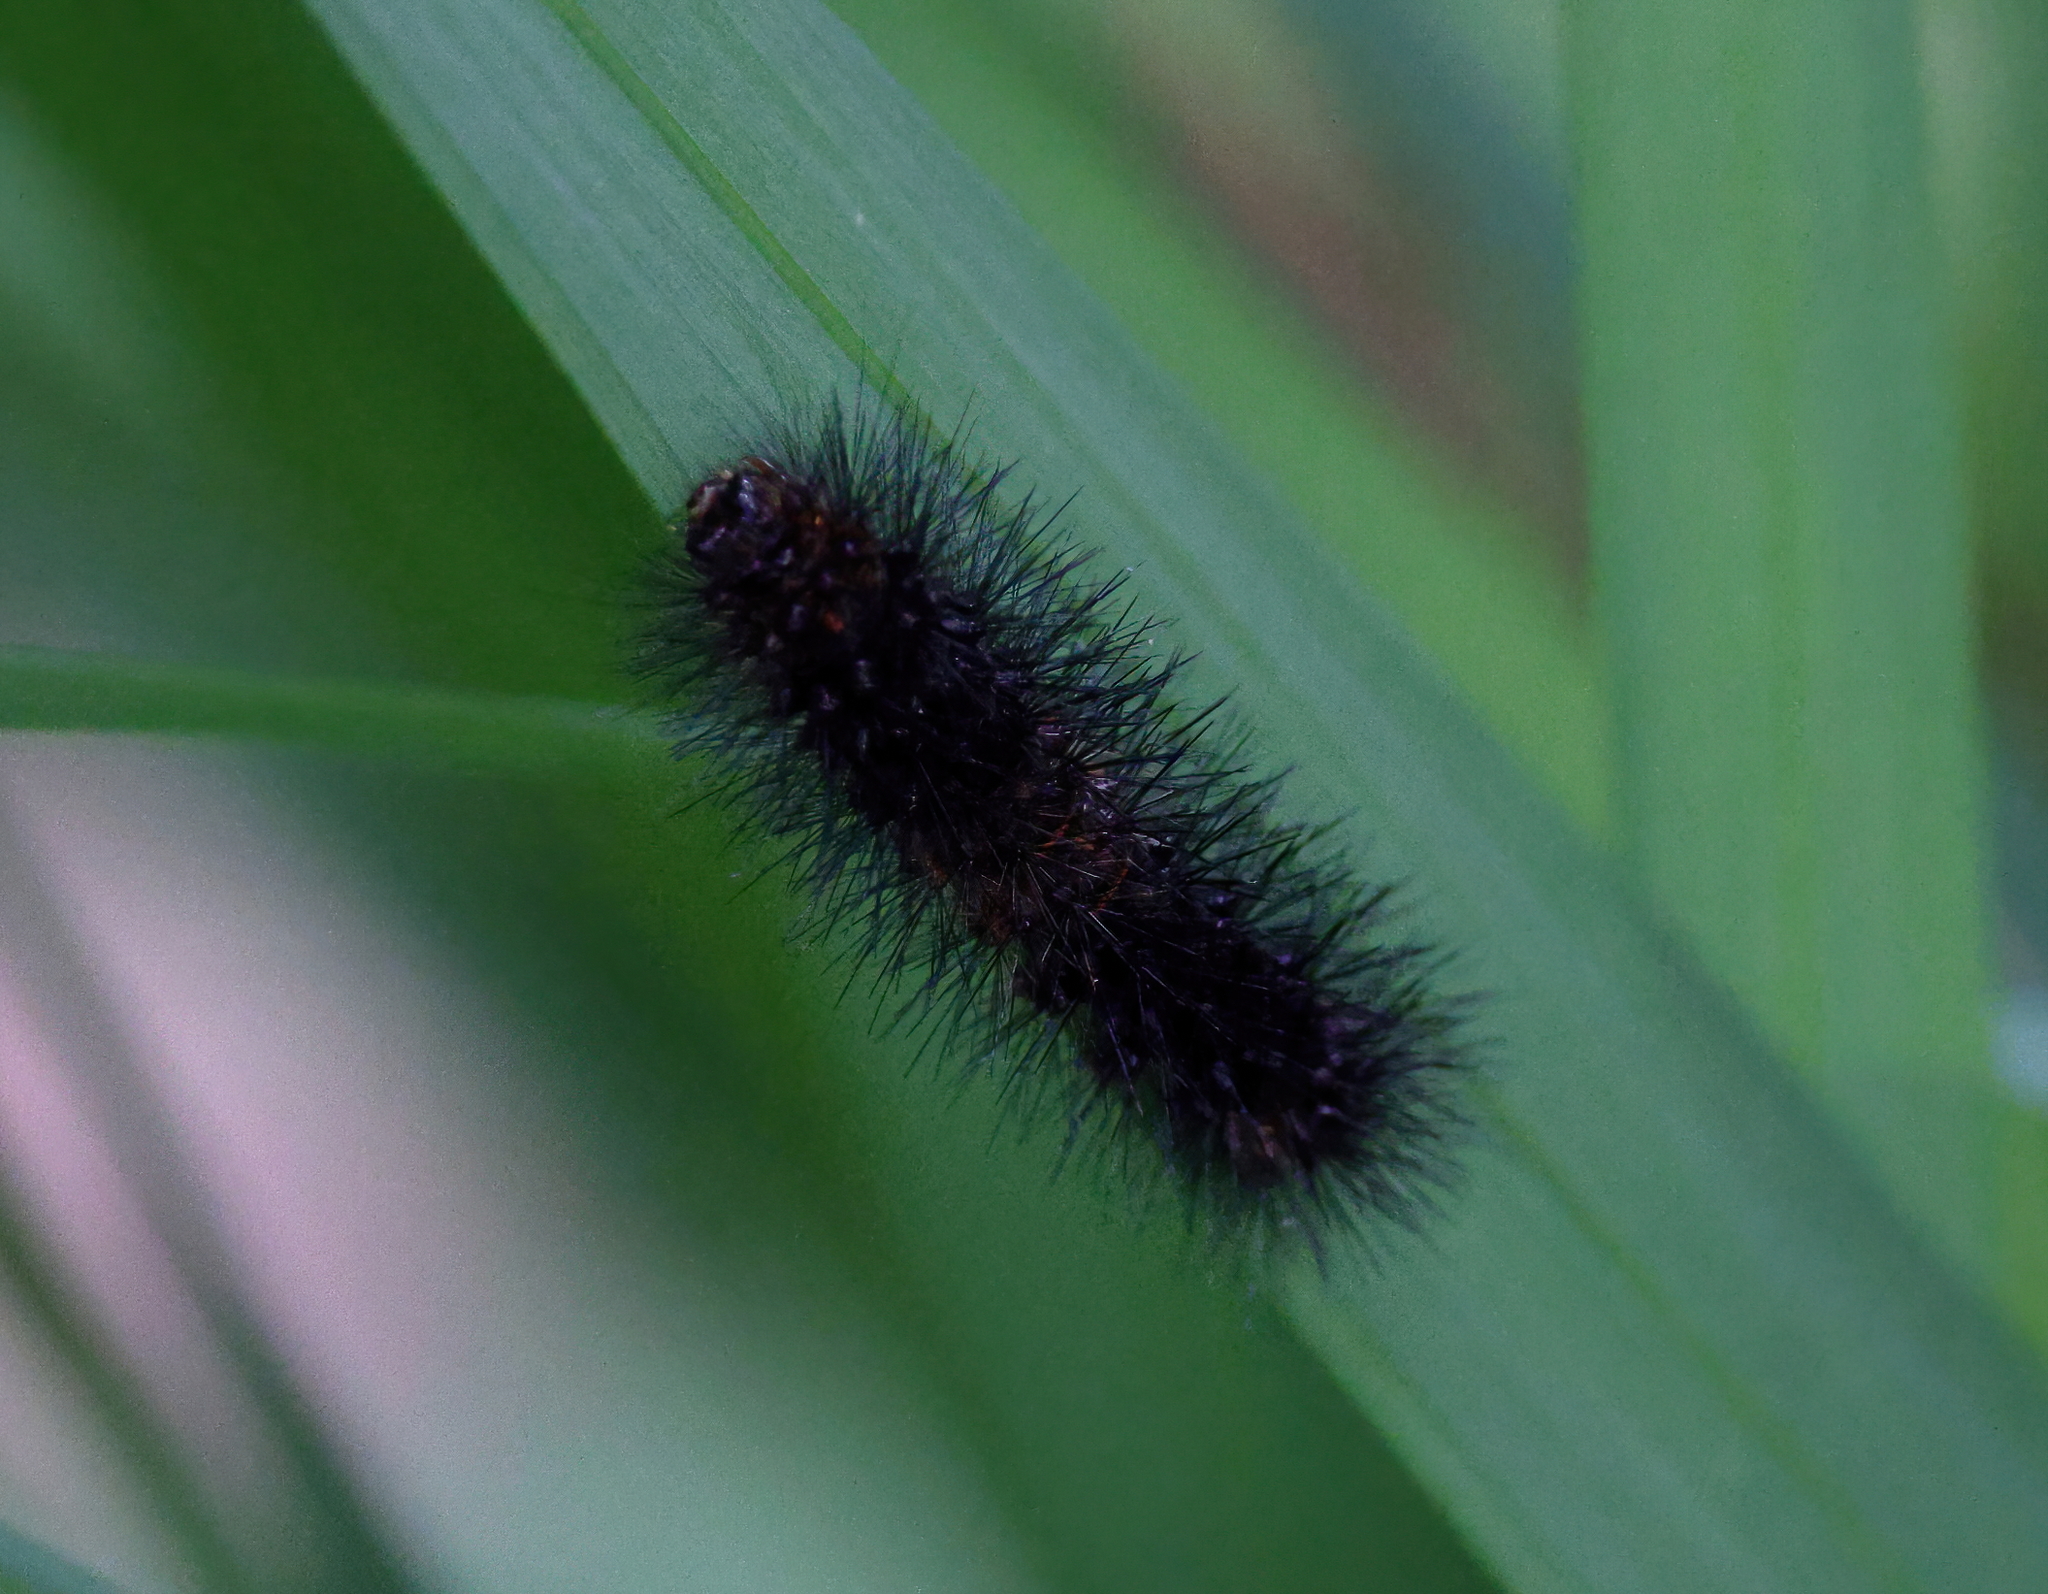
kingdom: Animalia
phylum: Arthropoda
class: Insecta
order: Lepidoptera
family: Erebidae
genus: Hypercompe
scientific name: Hypercompe scribonia
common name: Giant leopard moth
